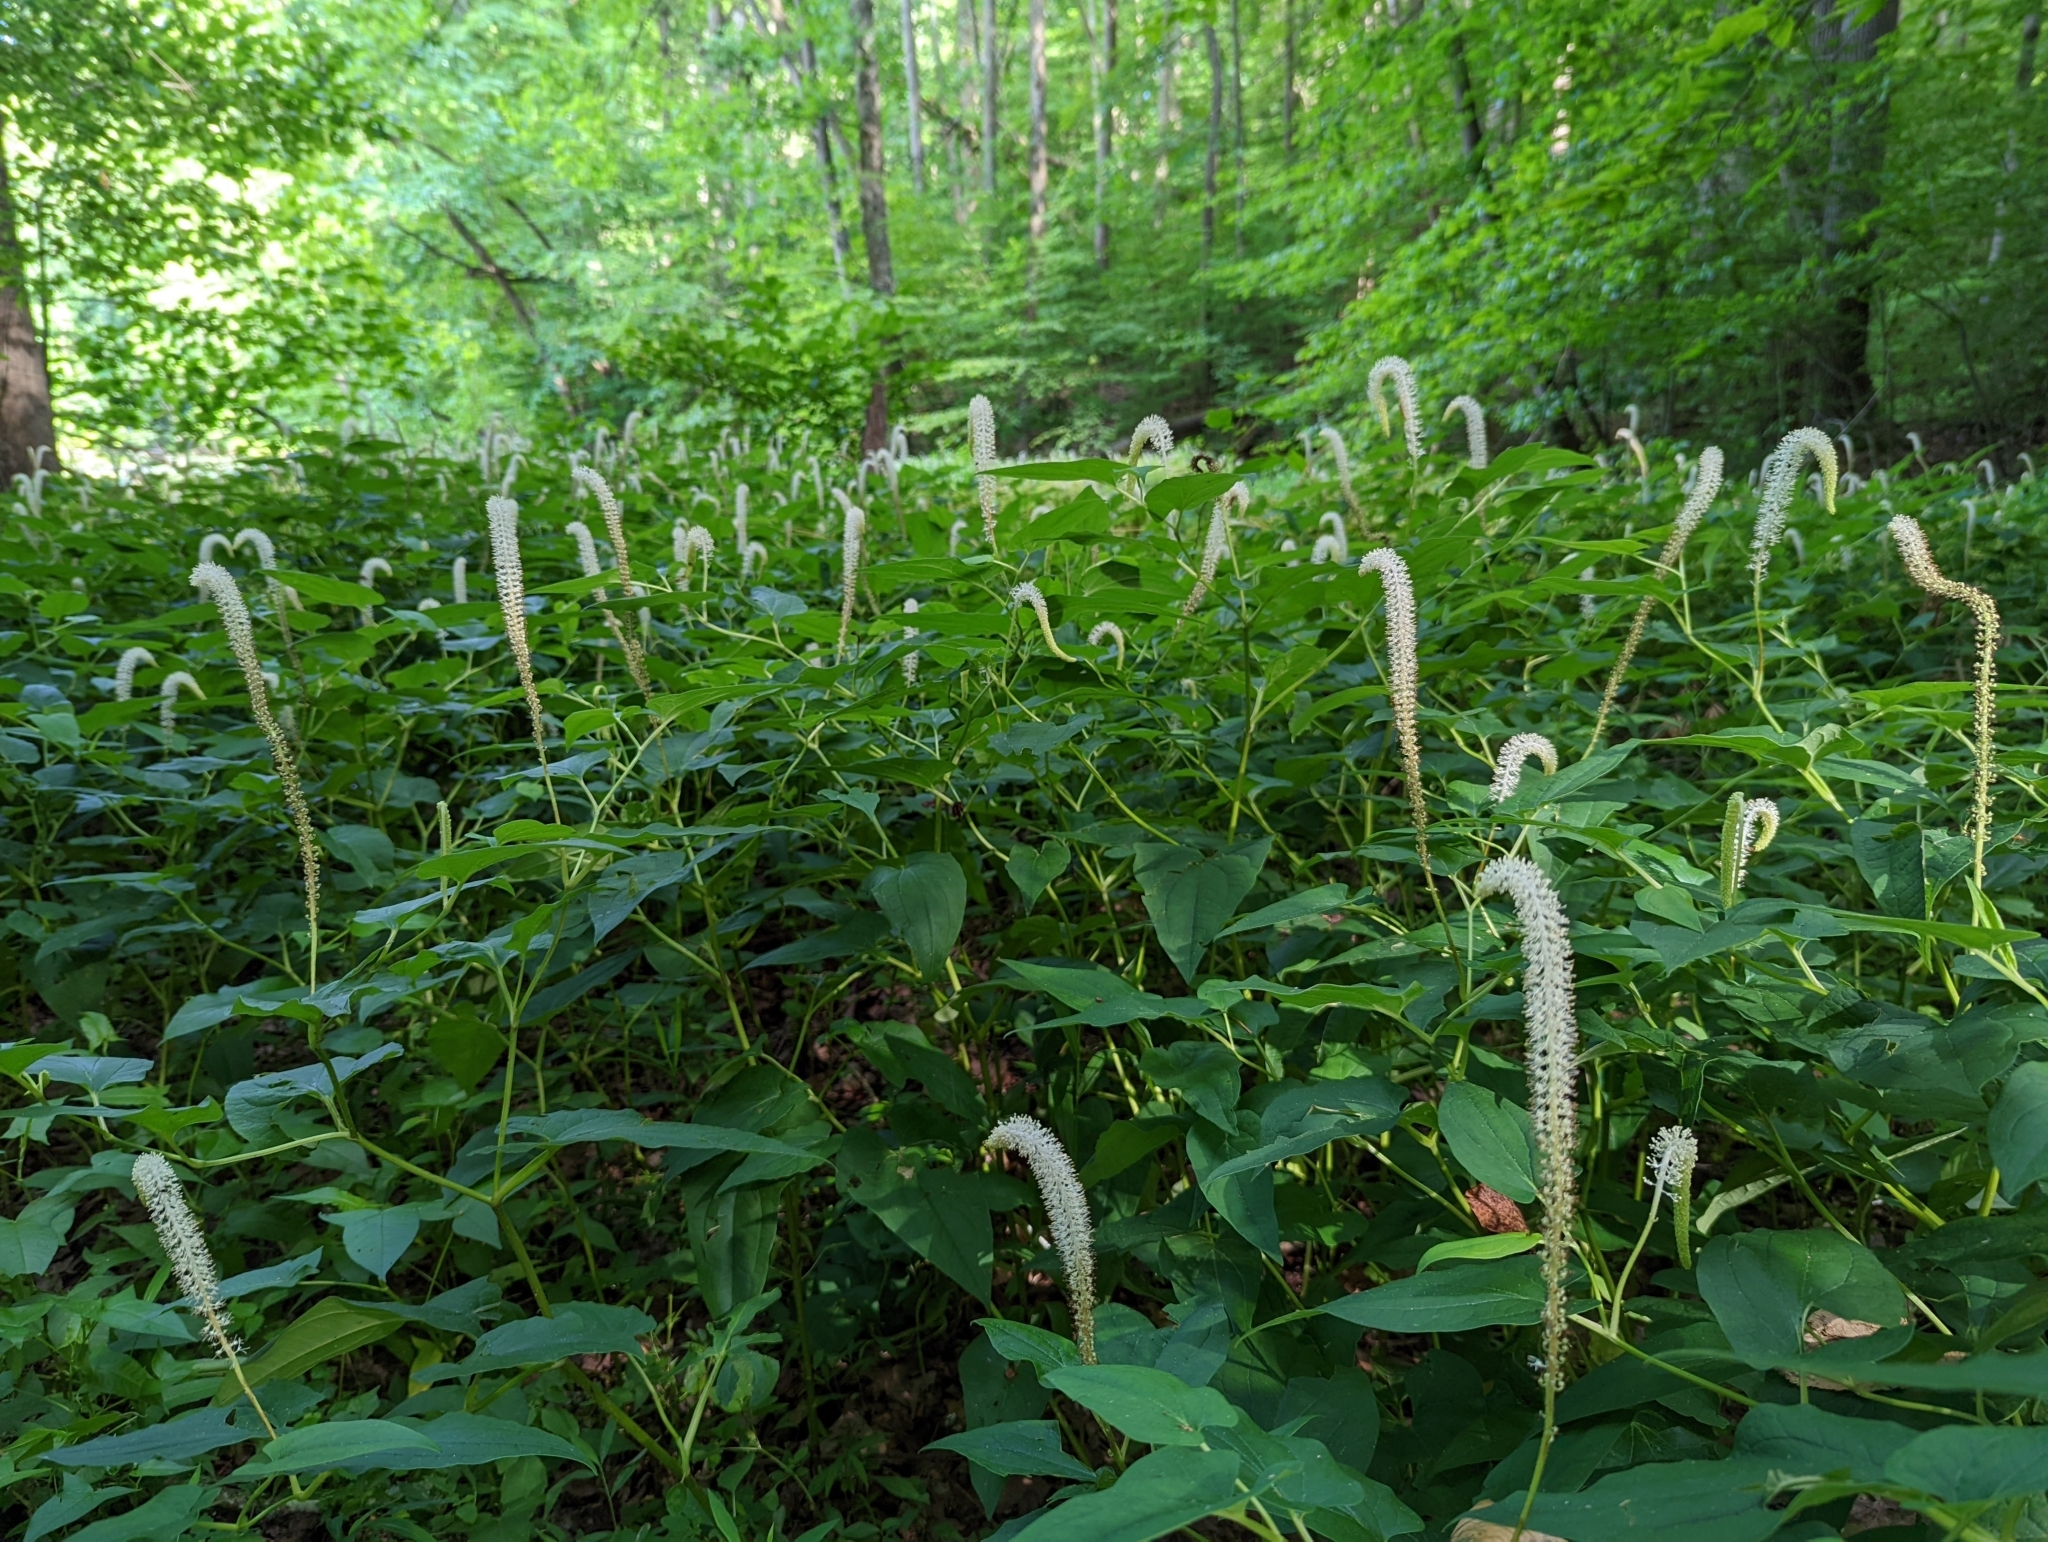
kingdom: Plantae
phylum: Tracheophyta
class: Magnoliopsida
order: Piperales
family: Saururaceae
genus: Saururus
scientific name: Saururus cernuus
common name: Lizard's-tail
